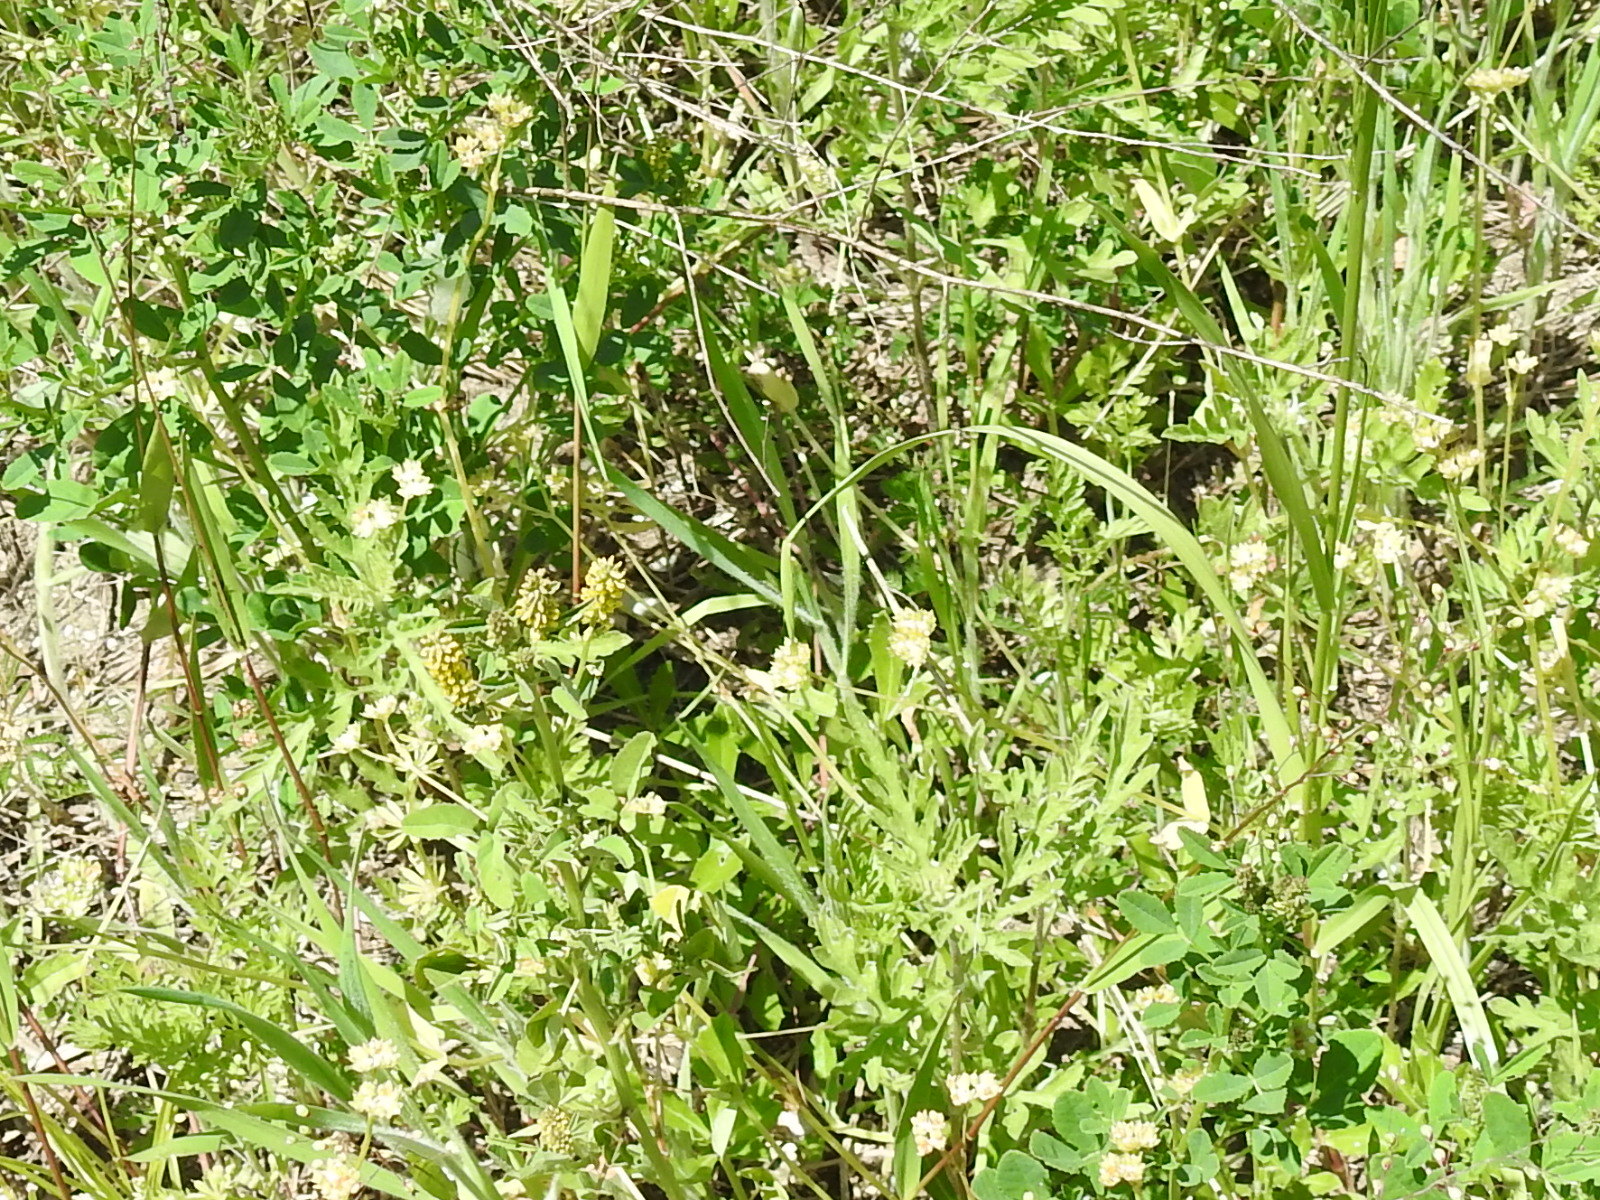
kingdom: Plantae
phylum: Tracheophyta
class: Magnoliopsida
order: Fabales
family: Fabaceae
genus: Melilotus
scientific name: Melilotus indicus
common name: Small melilot
